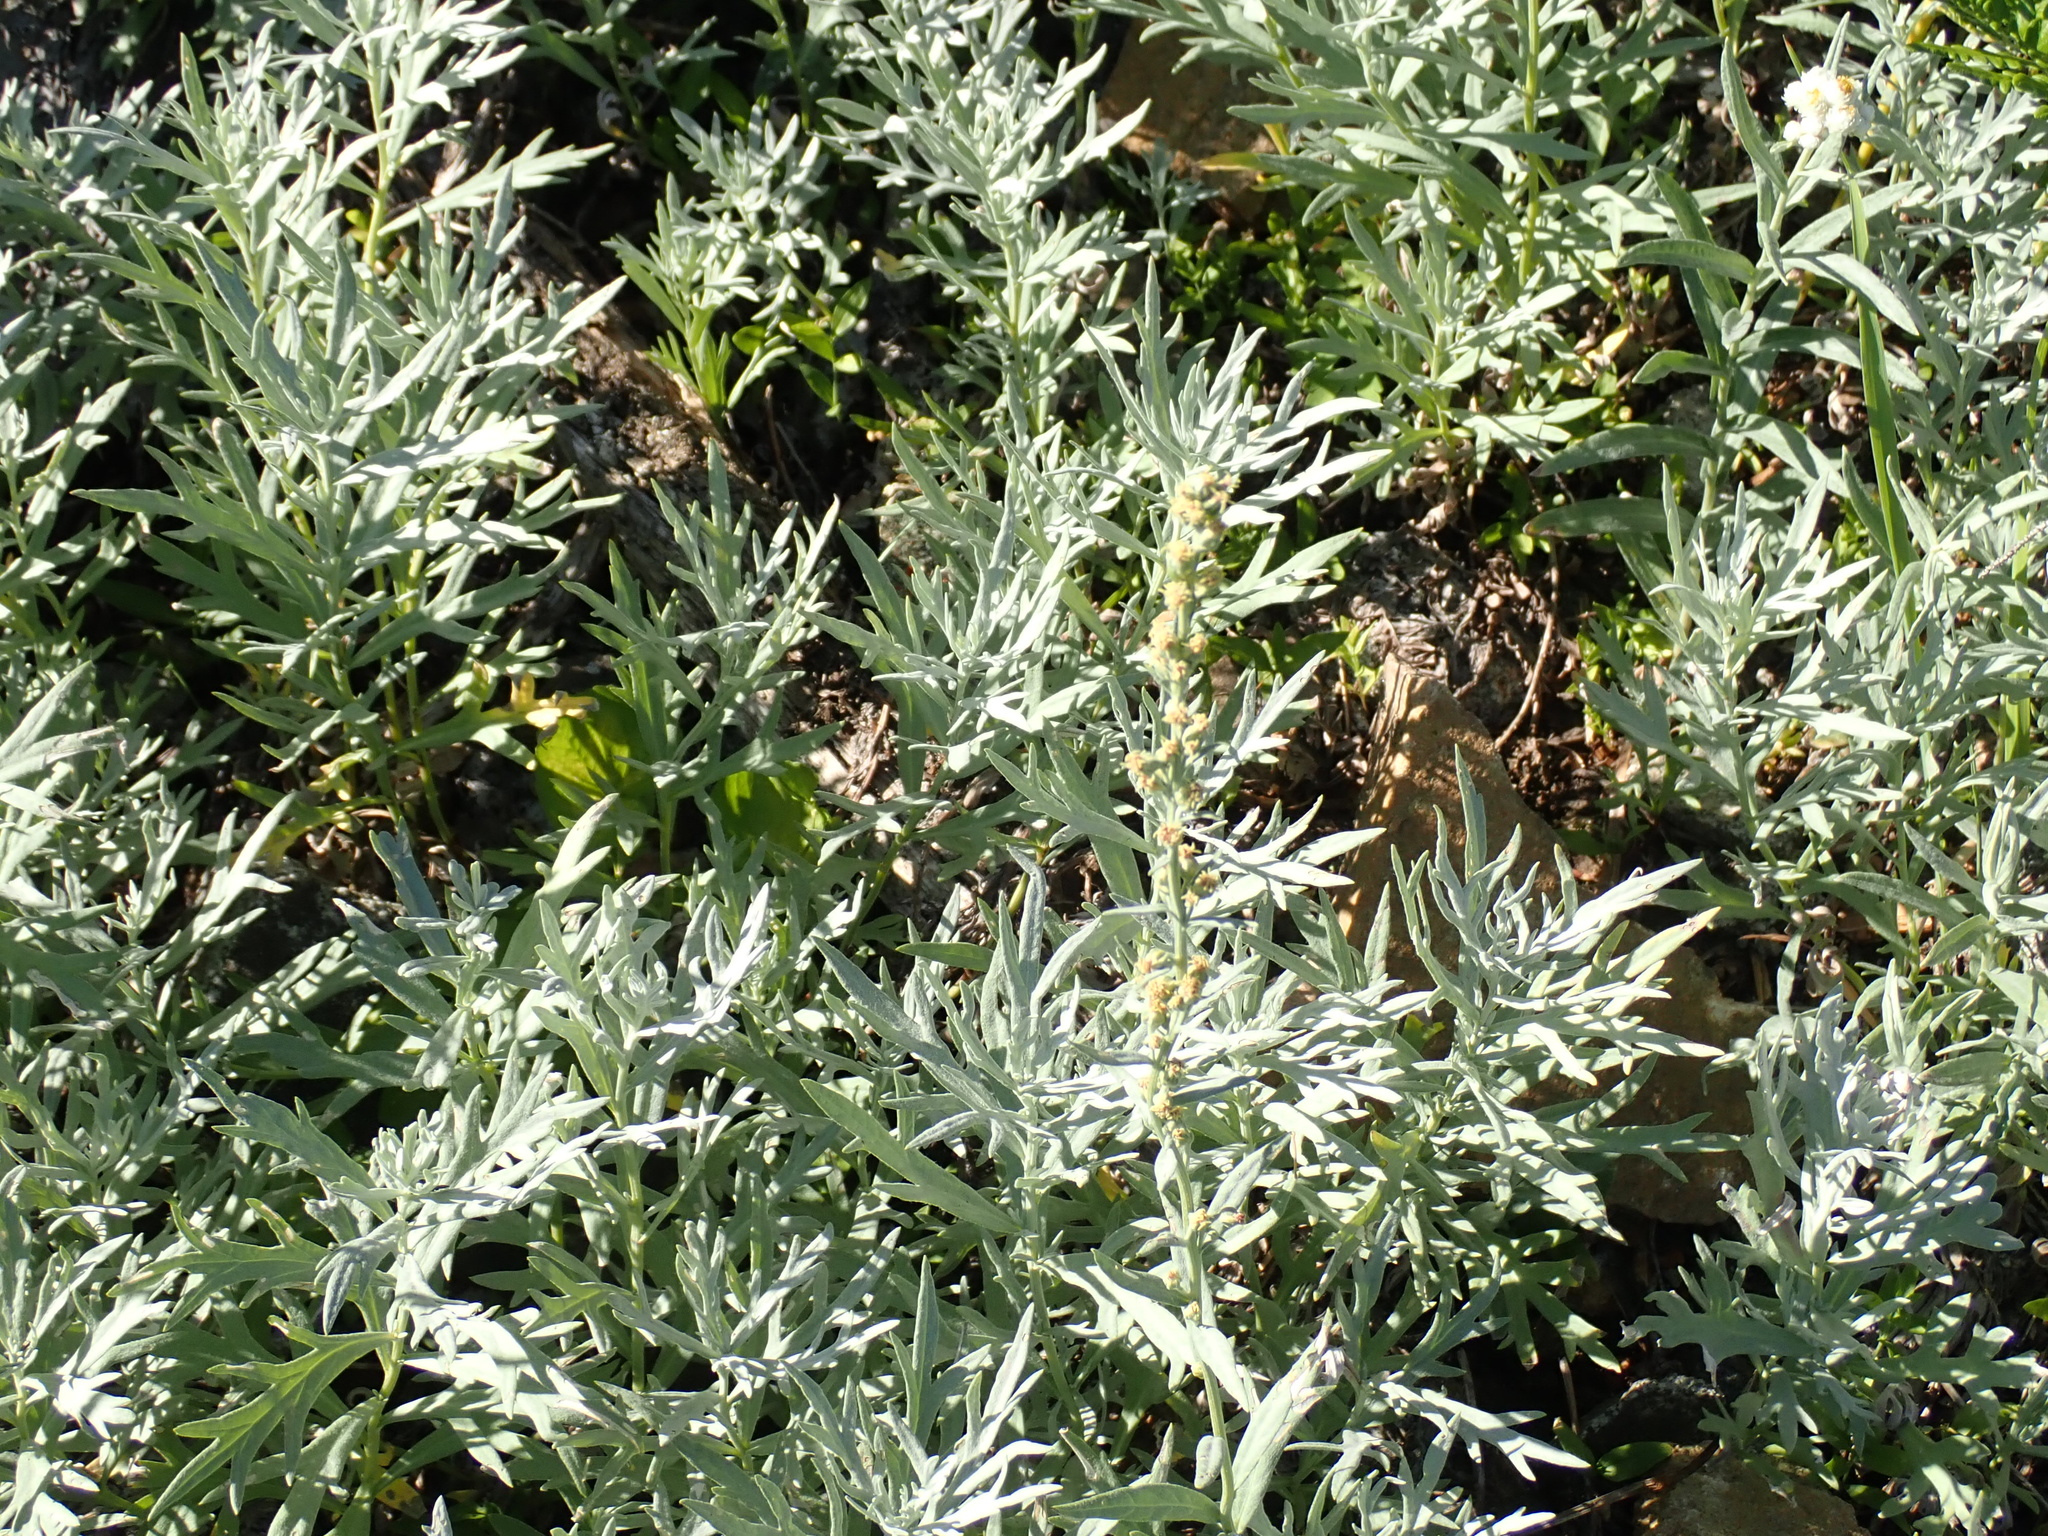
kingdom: Plantae
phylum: Tracheophyta
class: Magnoliopsida
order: Asterales
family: Asteraceae
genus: Artemisia
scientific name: Artemisia ludoviciana
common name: Western mugwort
